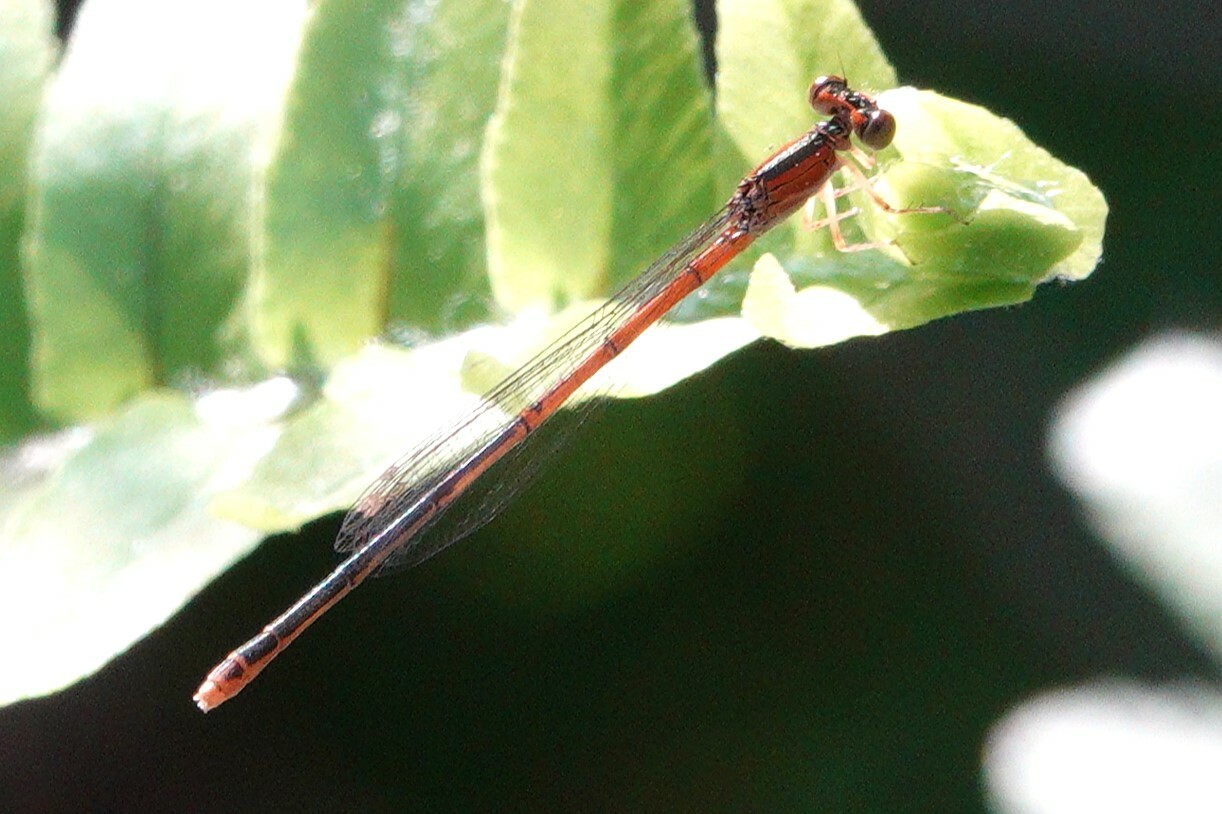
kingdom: Animalia
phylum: Arthropoda
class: Insecta
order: Odonata
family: Coenagrionidae
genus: Ischnura
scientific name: Ischnura hastata
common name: Citrine forktail
